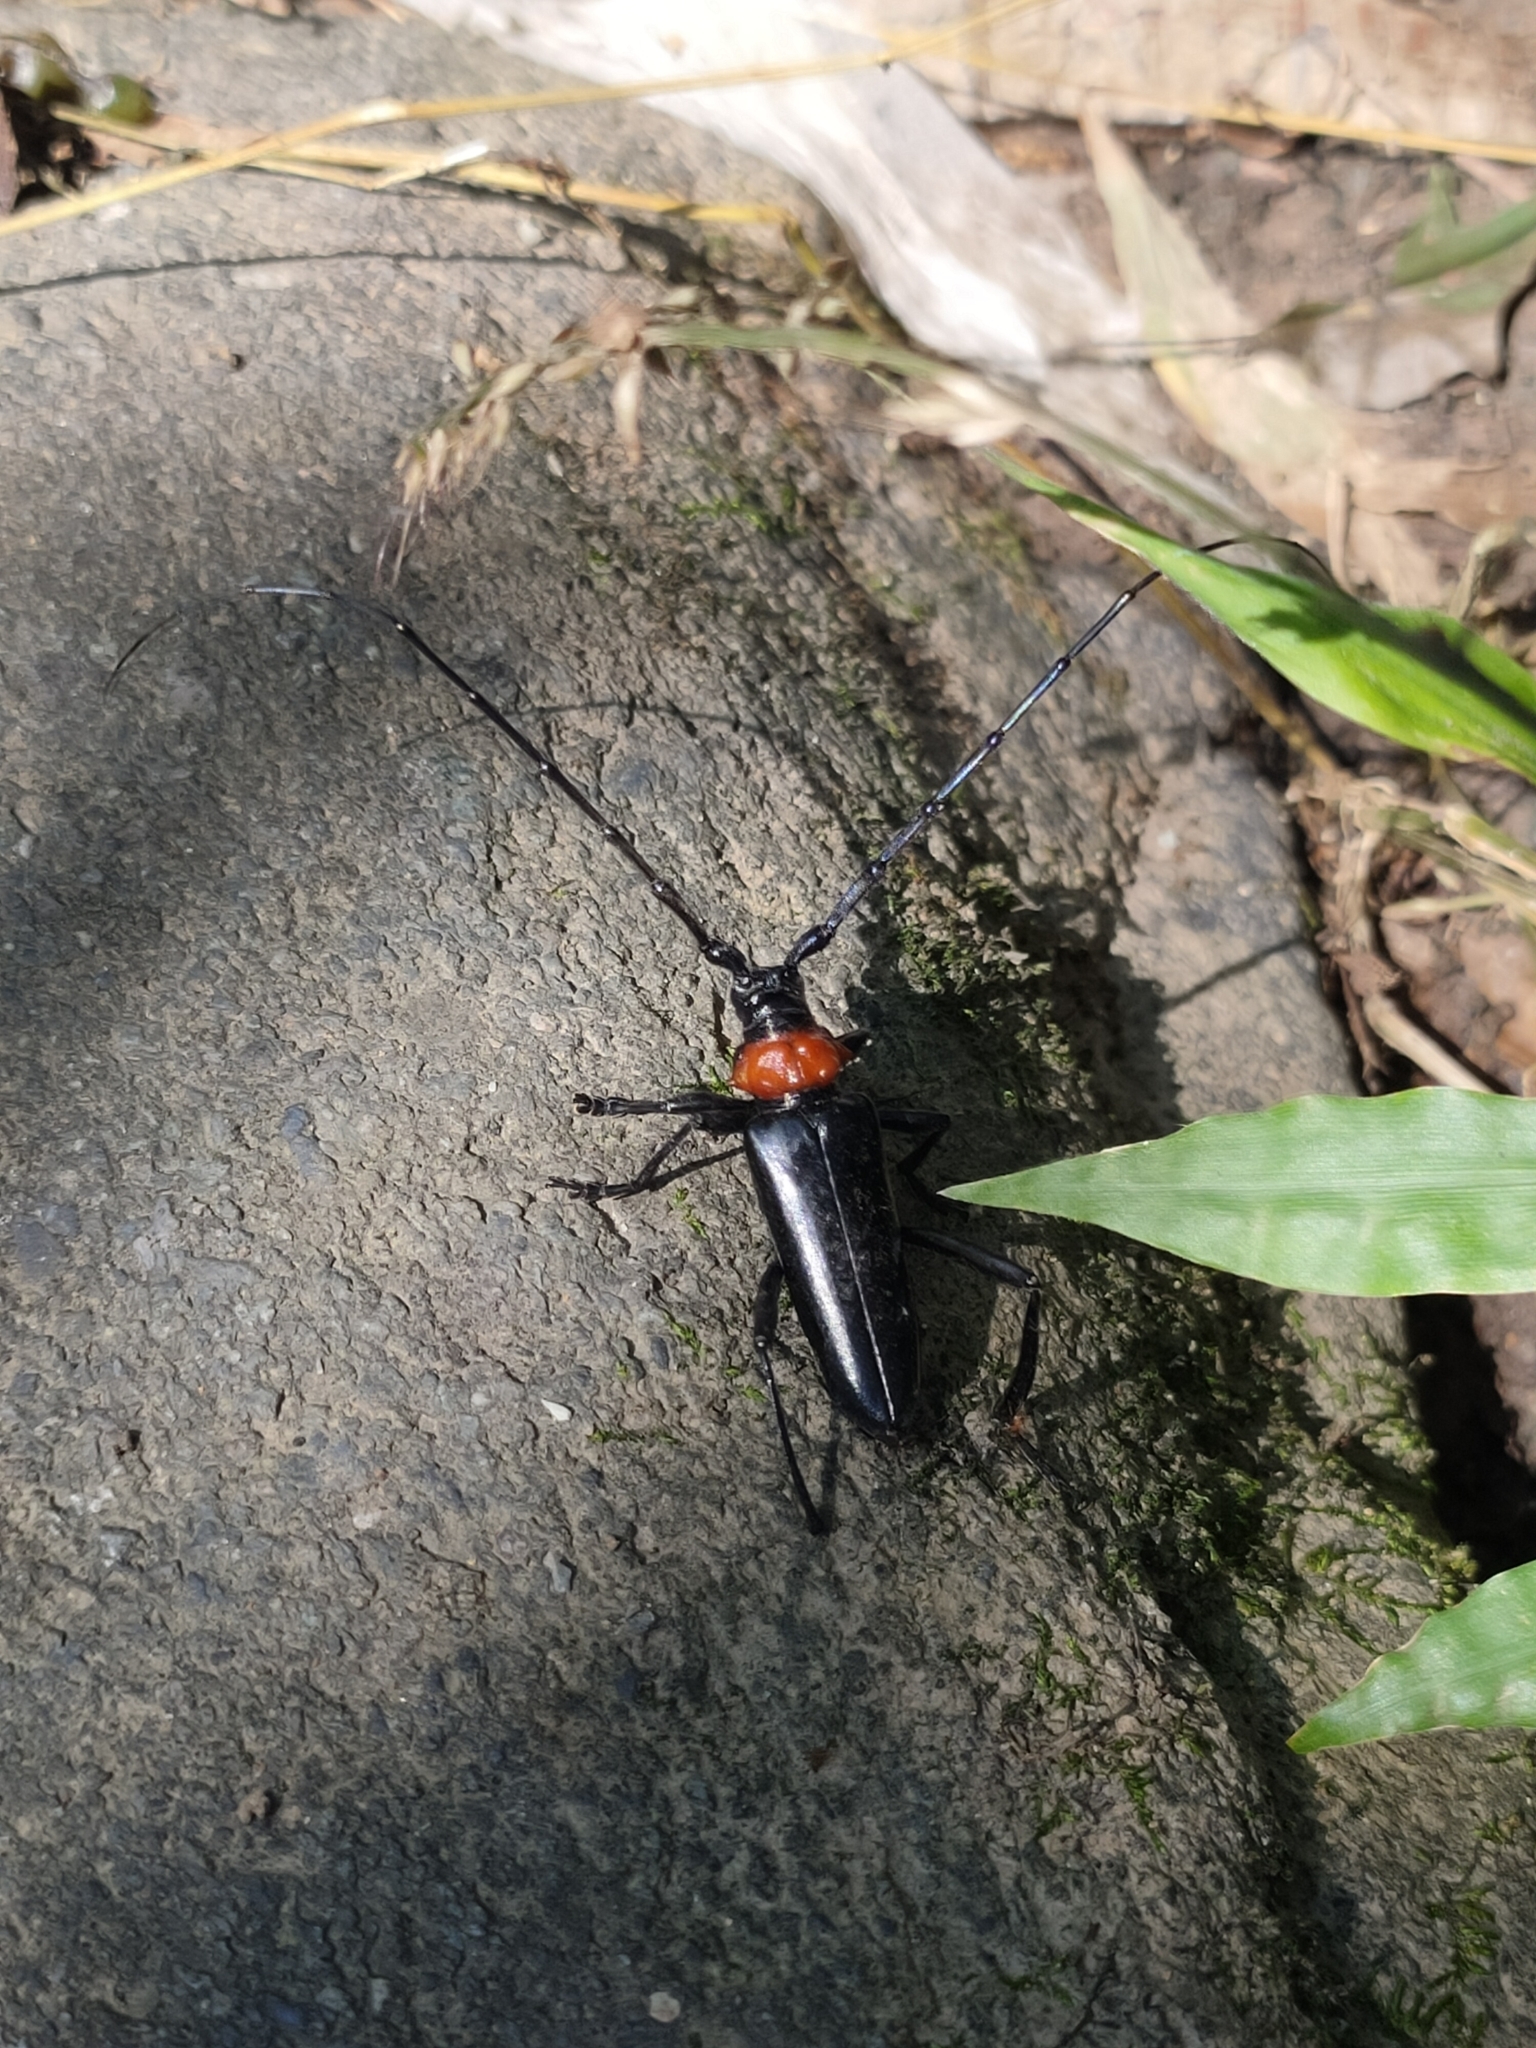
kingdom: Animalia
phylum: Arthropoda
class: Insecta
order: Coleoptera
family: Cerambycidae
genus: Aromia
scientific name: Aromia bungii
